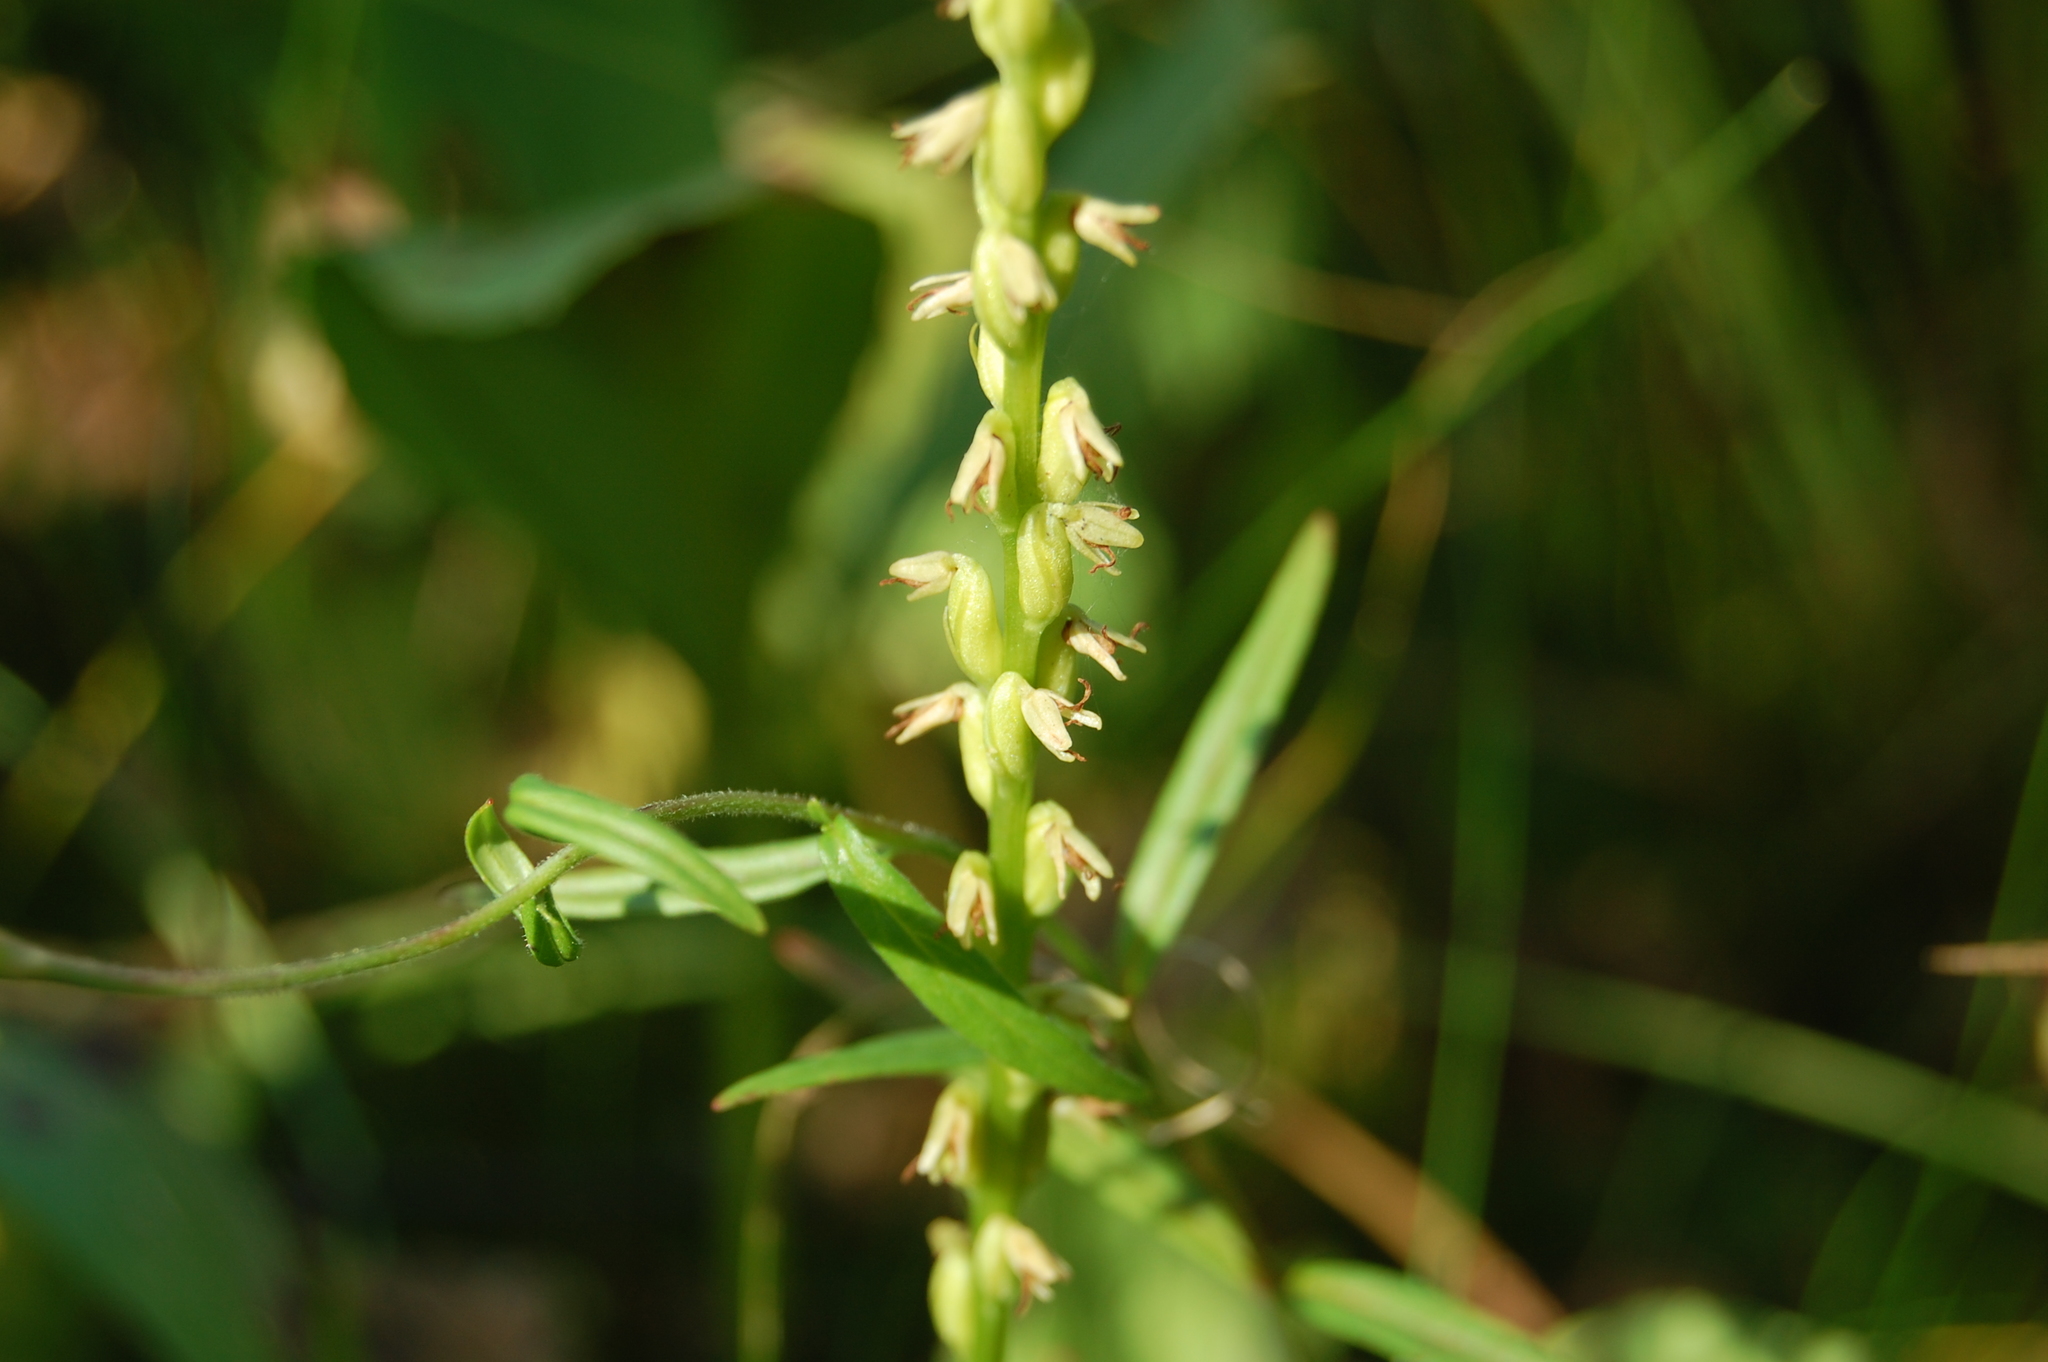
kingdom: Plantae
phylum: Tracheophyta
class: Liliopsida
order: Asparagales
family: Orchidaceae
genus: Herminium
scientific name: Herminium monorchis
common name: Musk orchid
